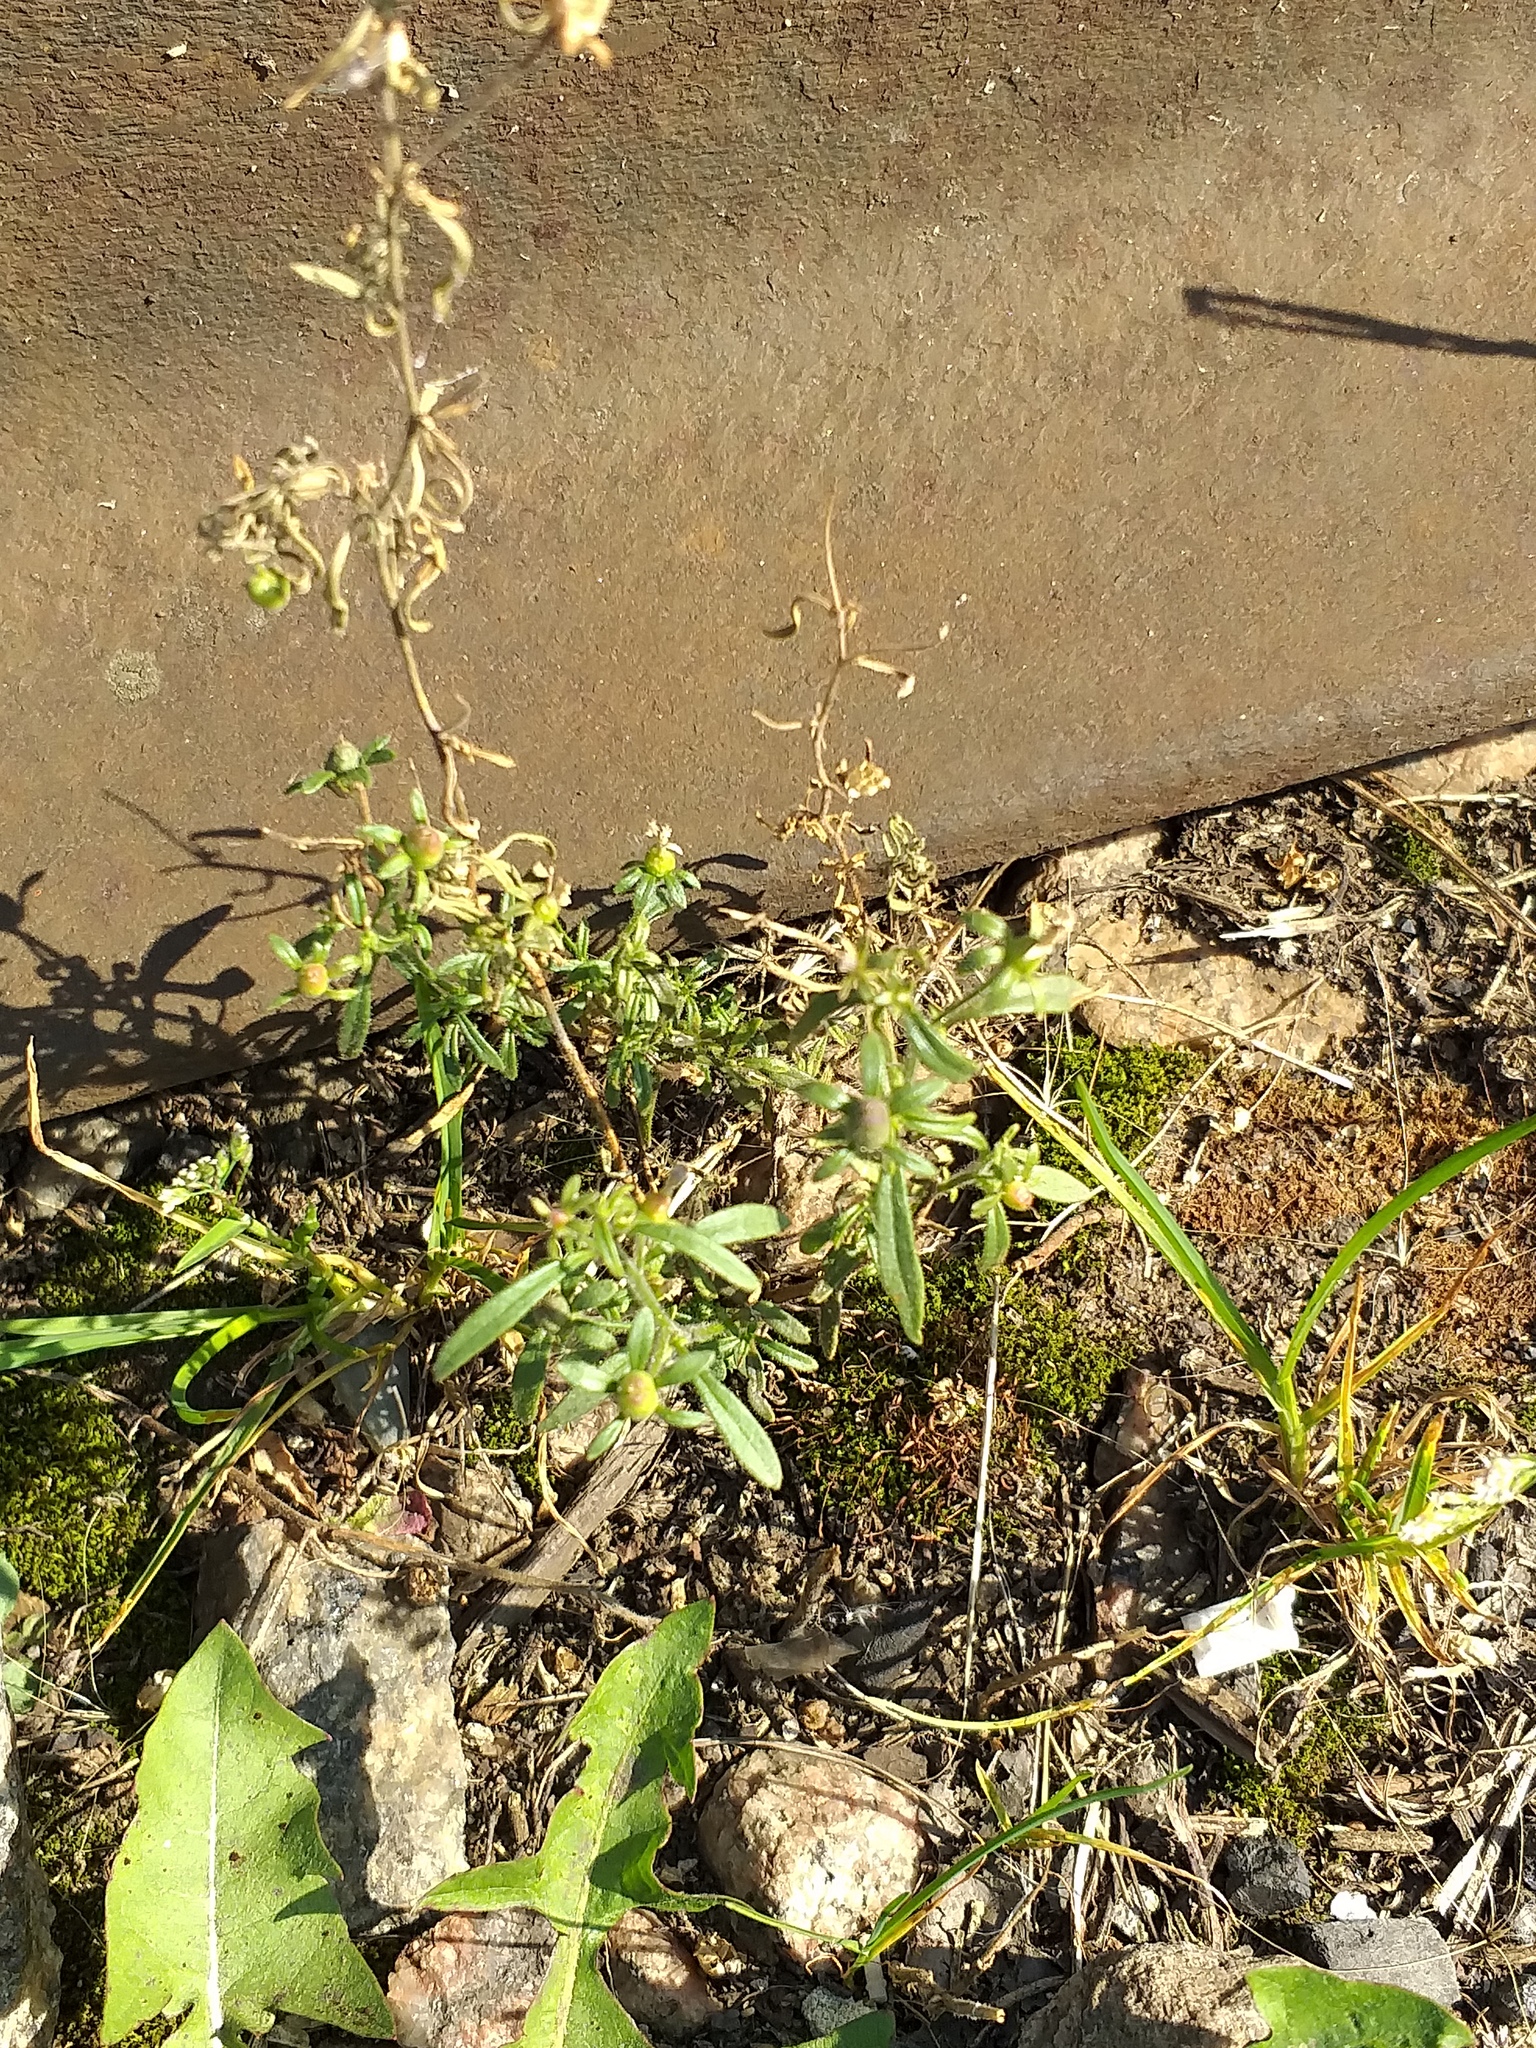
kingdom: Plantae
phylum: Tracheophyta
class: Magnoliopsida
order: Lamiales
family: Plantaginaceae
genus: Chaenorhinum
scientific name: Chaenorhinum minus
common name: Dwarf snapdragon
